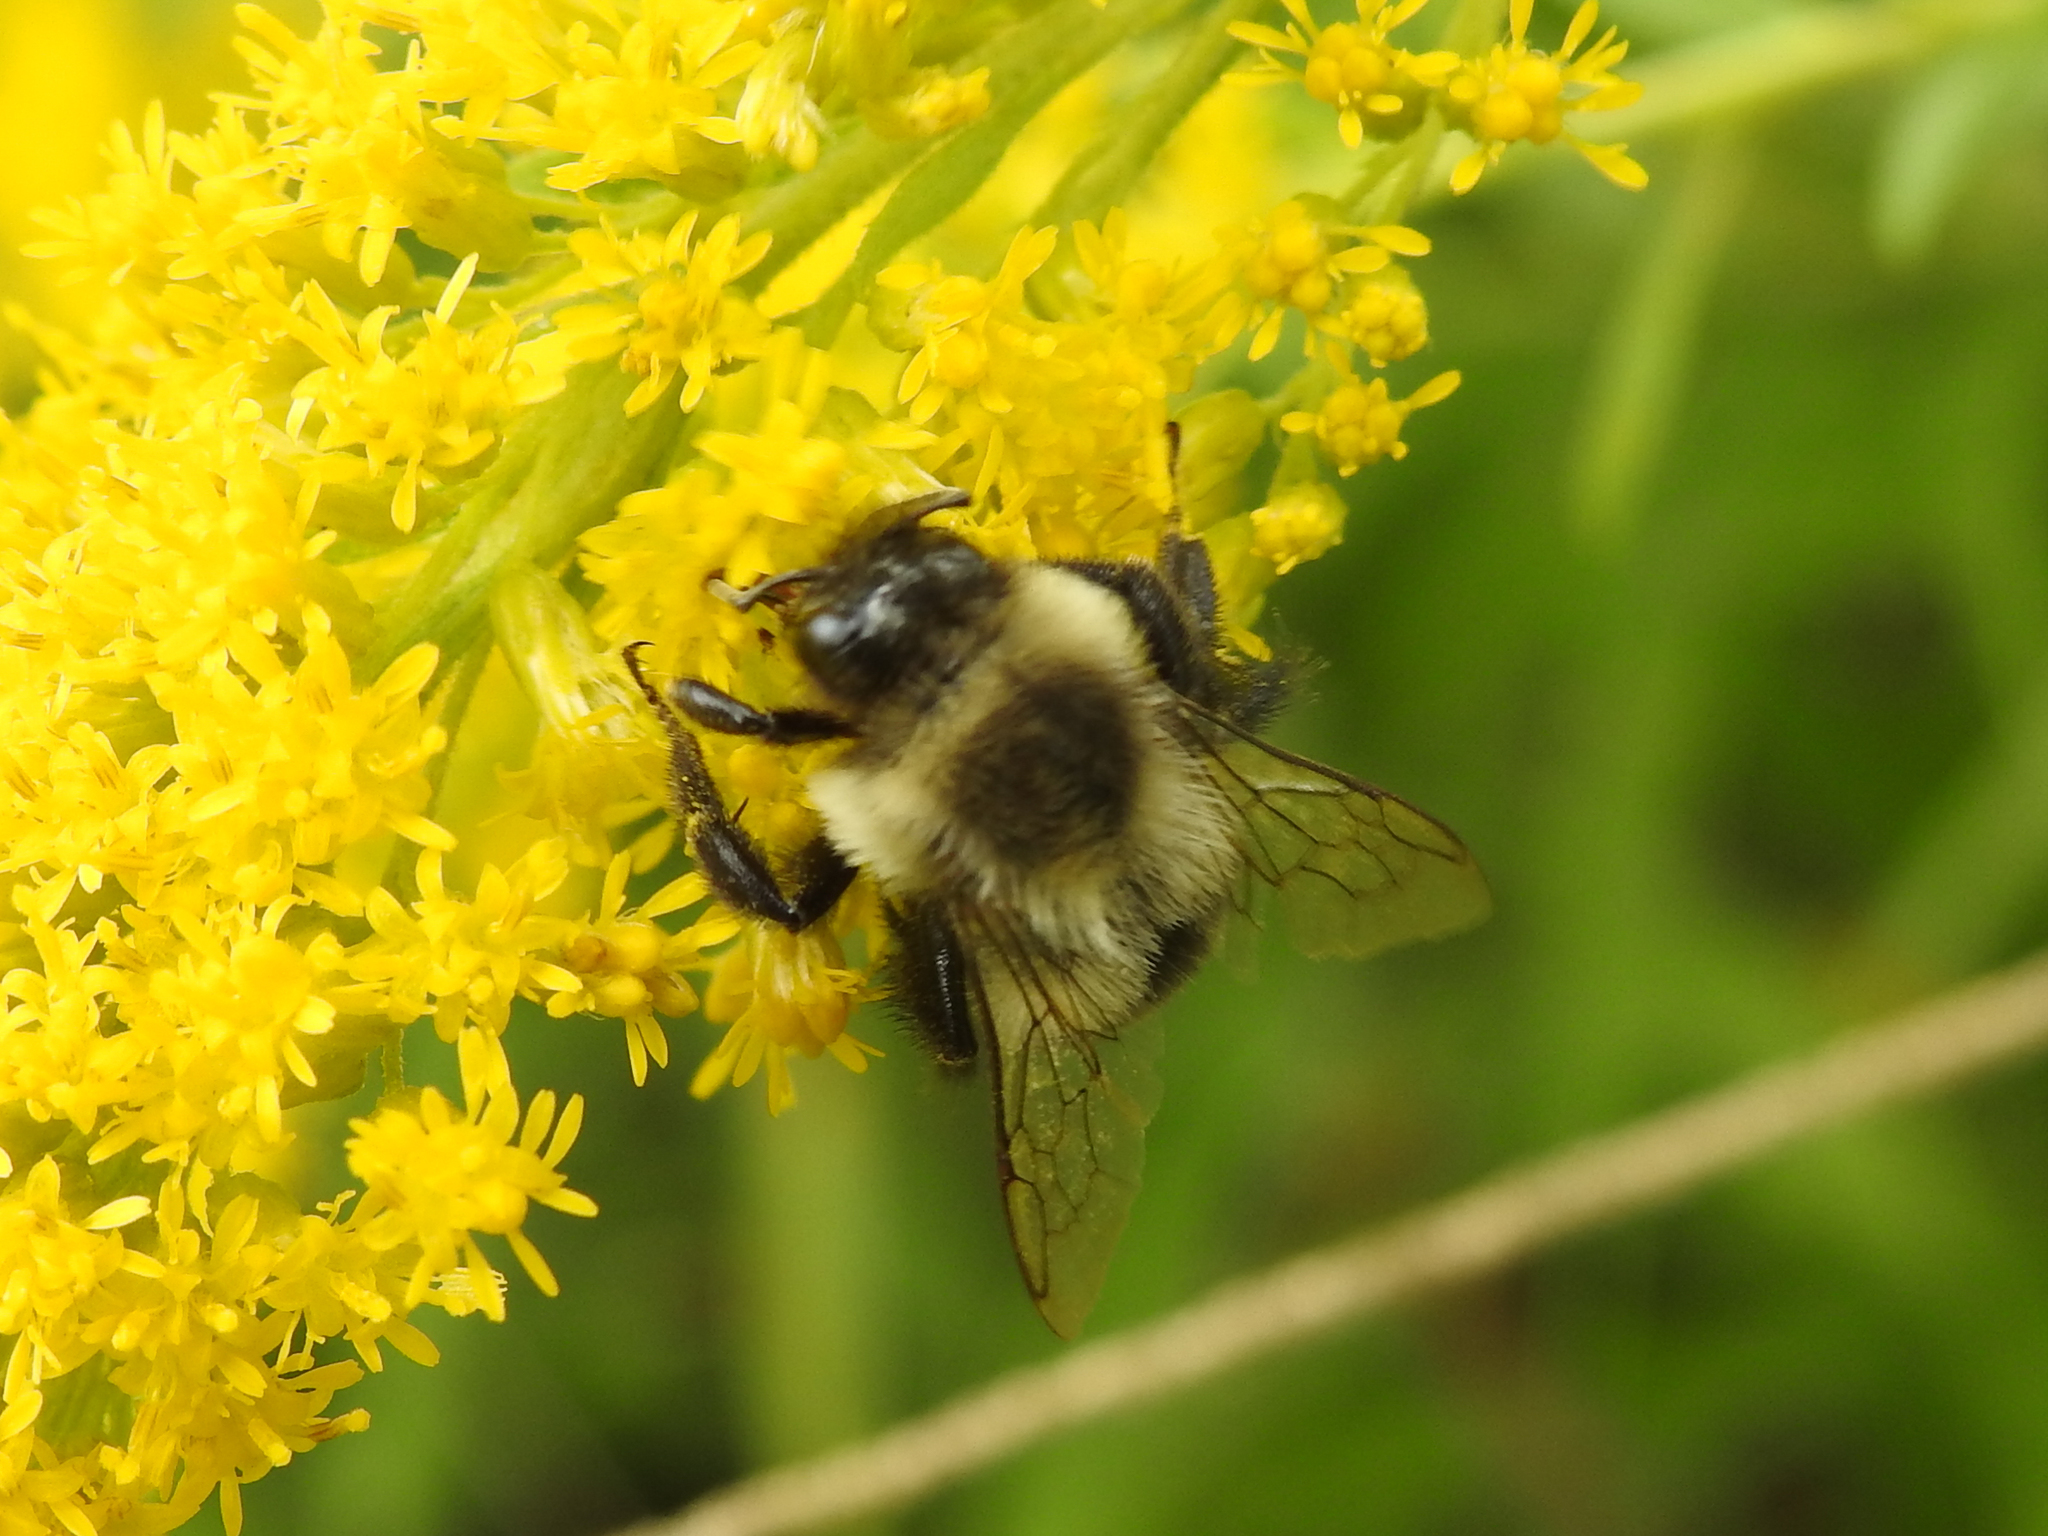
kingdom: Animalia
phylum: Arthropoda
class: Insecta
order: Hymenoptera
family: Apidae
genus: Bombus
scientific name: Bombus impatiens
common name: Common eastern bumble bee
